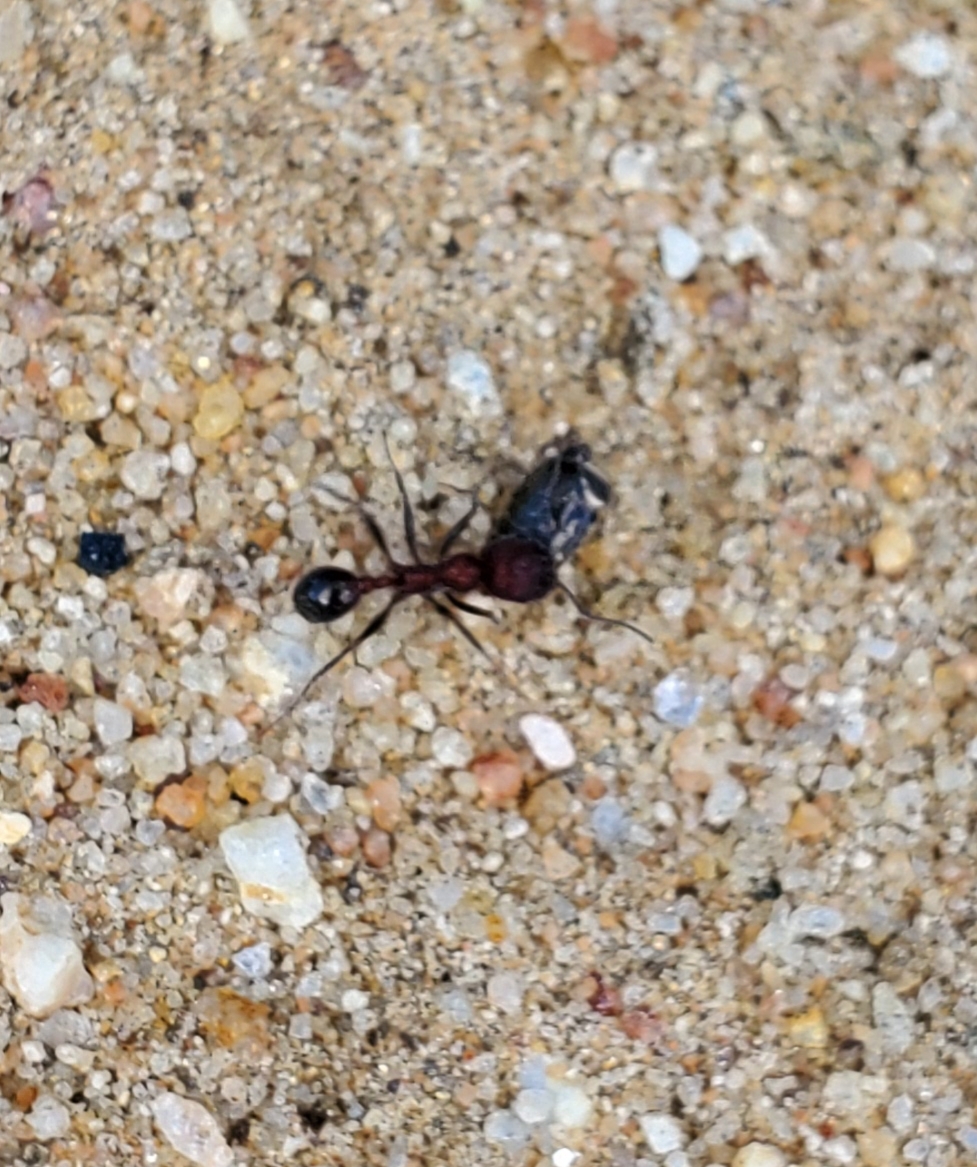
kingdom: Animalia
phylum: Arthropoda
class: Insecta
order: Hymenoptera
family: Formicidae
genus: Veromessor
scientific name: Veromessor andrei
